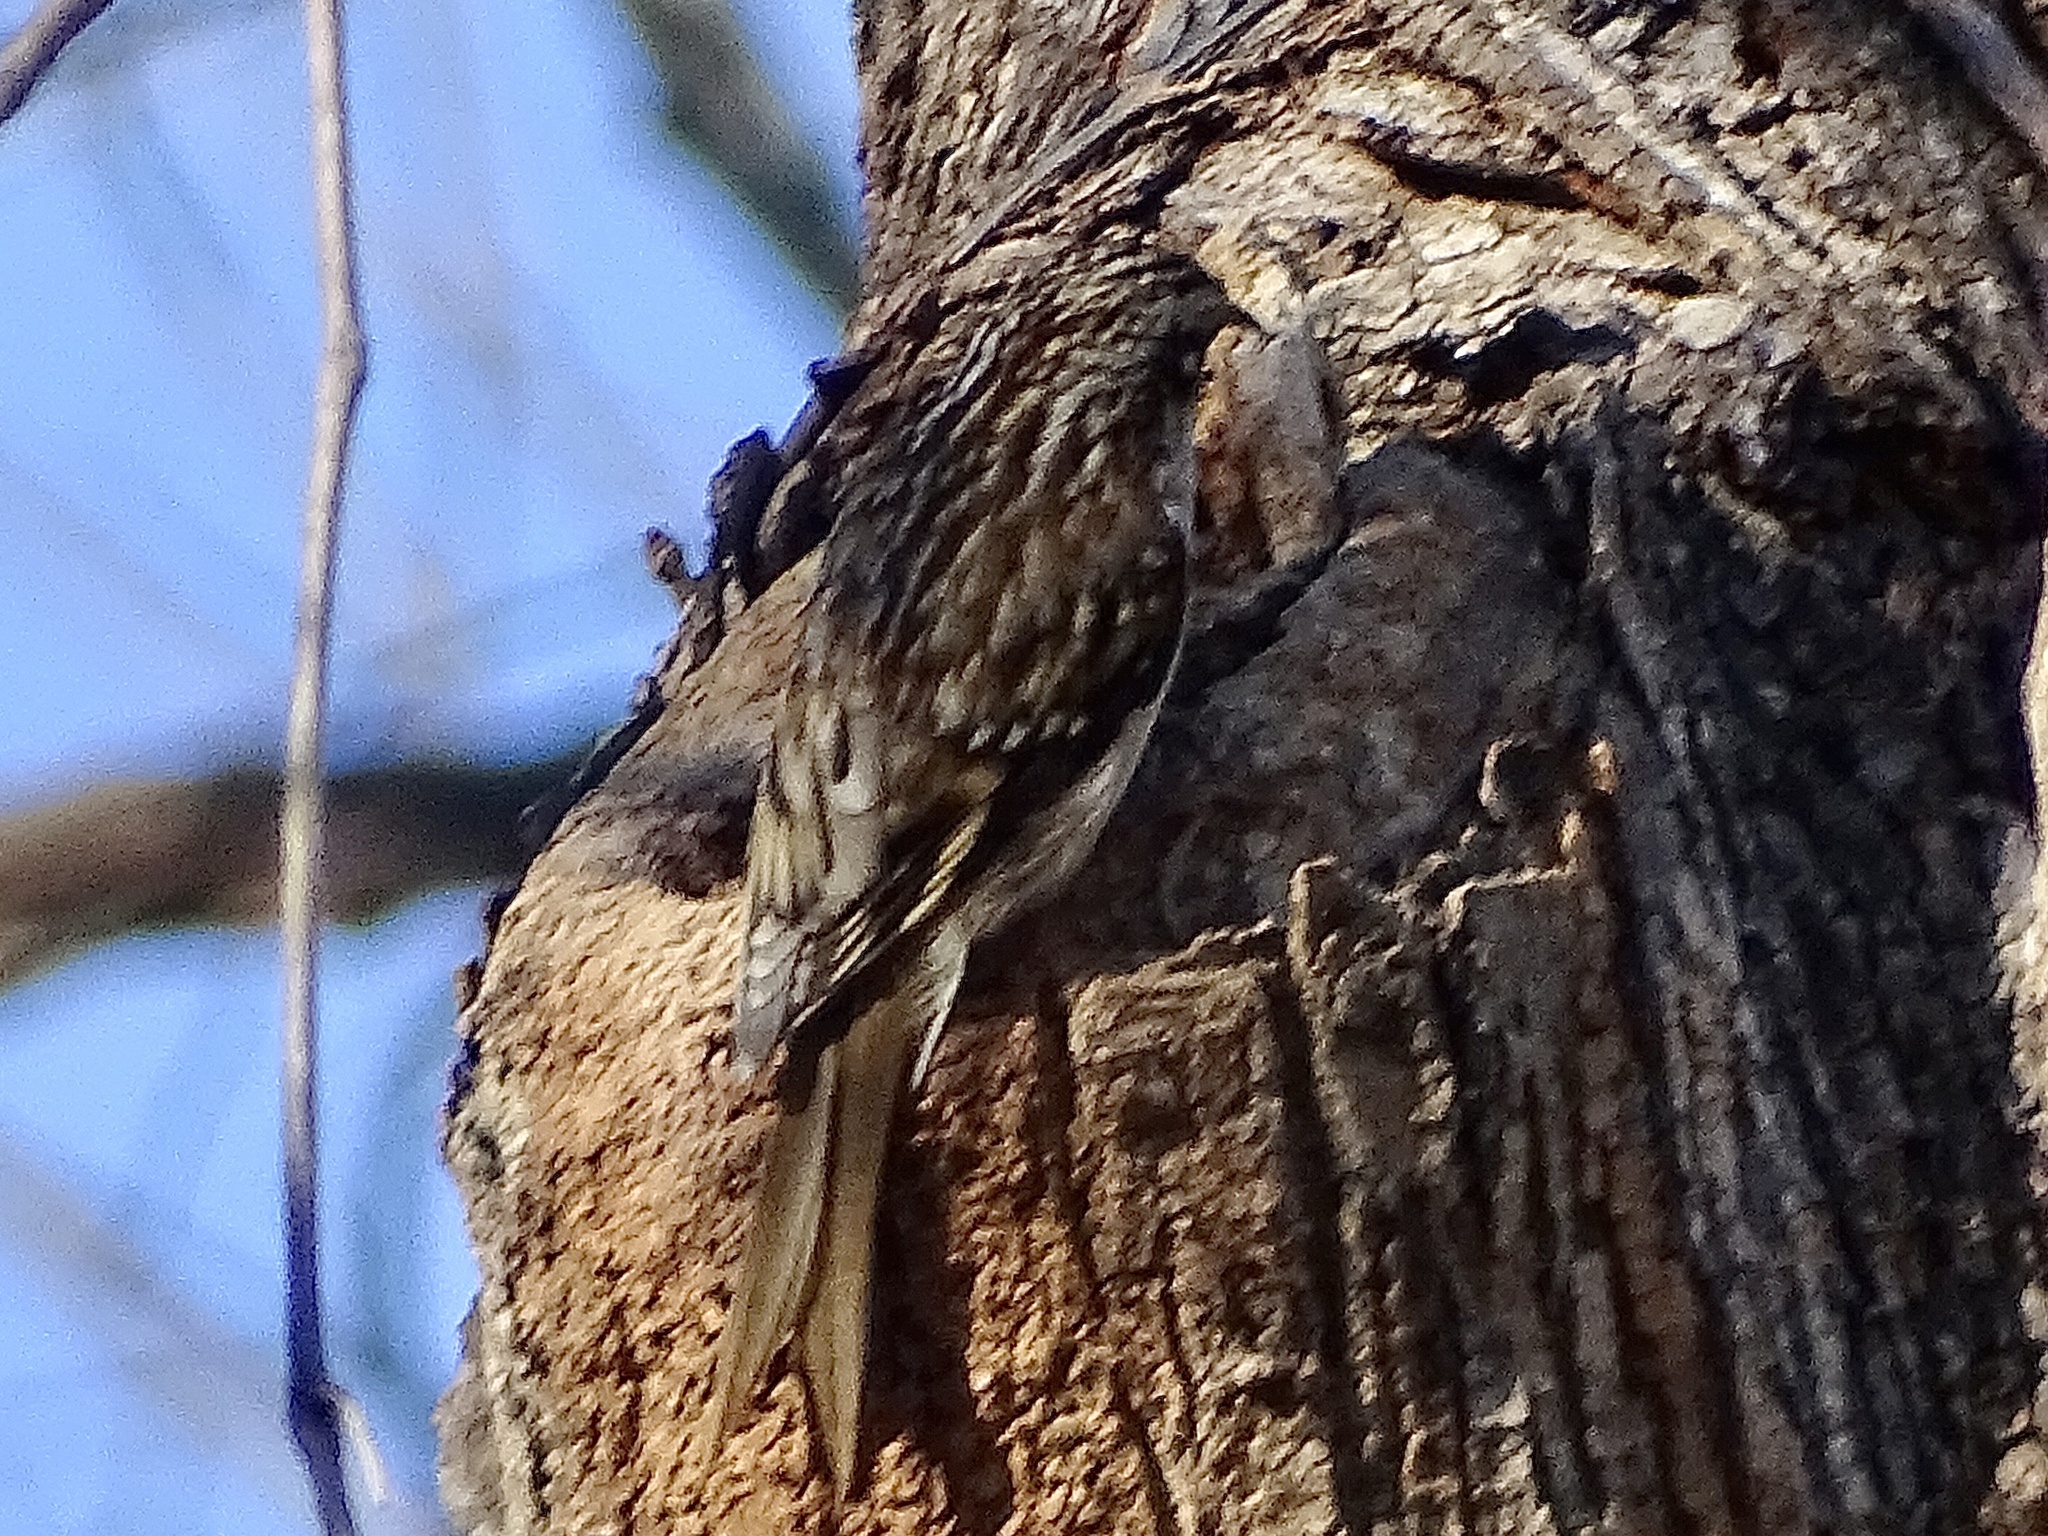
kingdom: Animalia
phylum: Chordata
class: Aves
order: Passeriformes
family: Certhiidae
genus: Certhia
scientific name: Certhia americana
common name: Brown creeper
